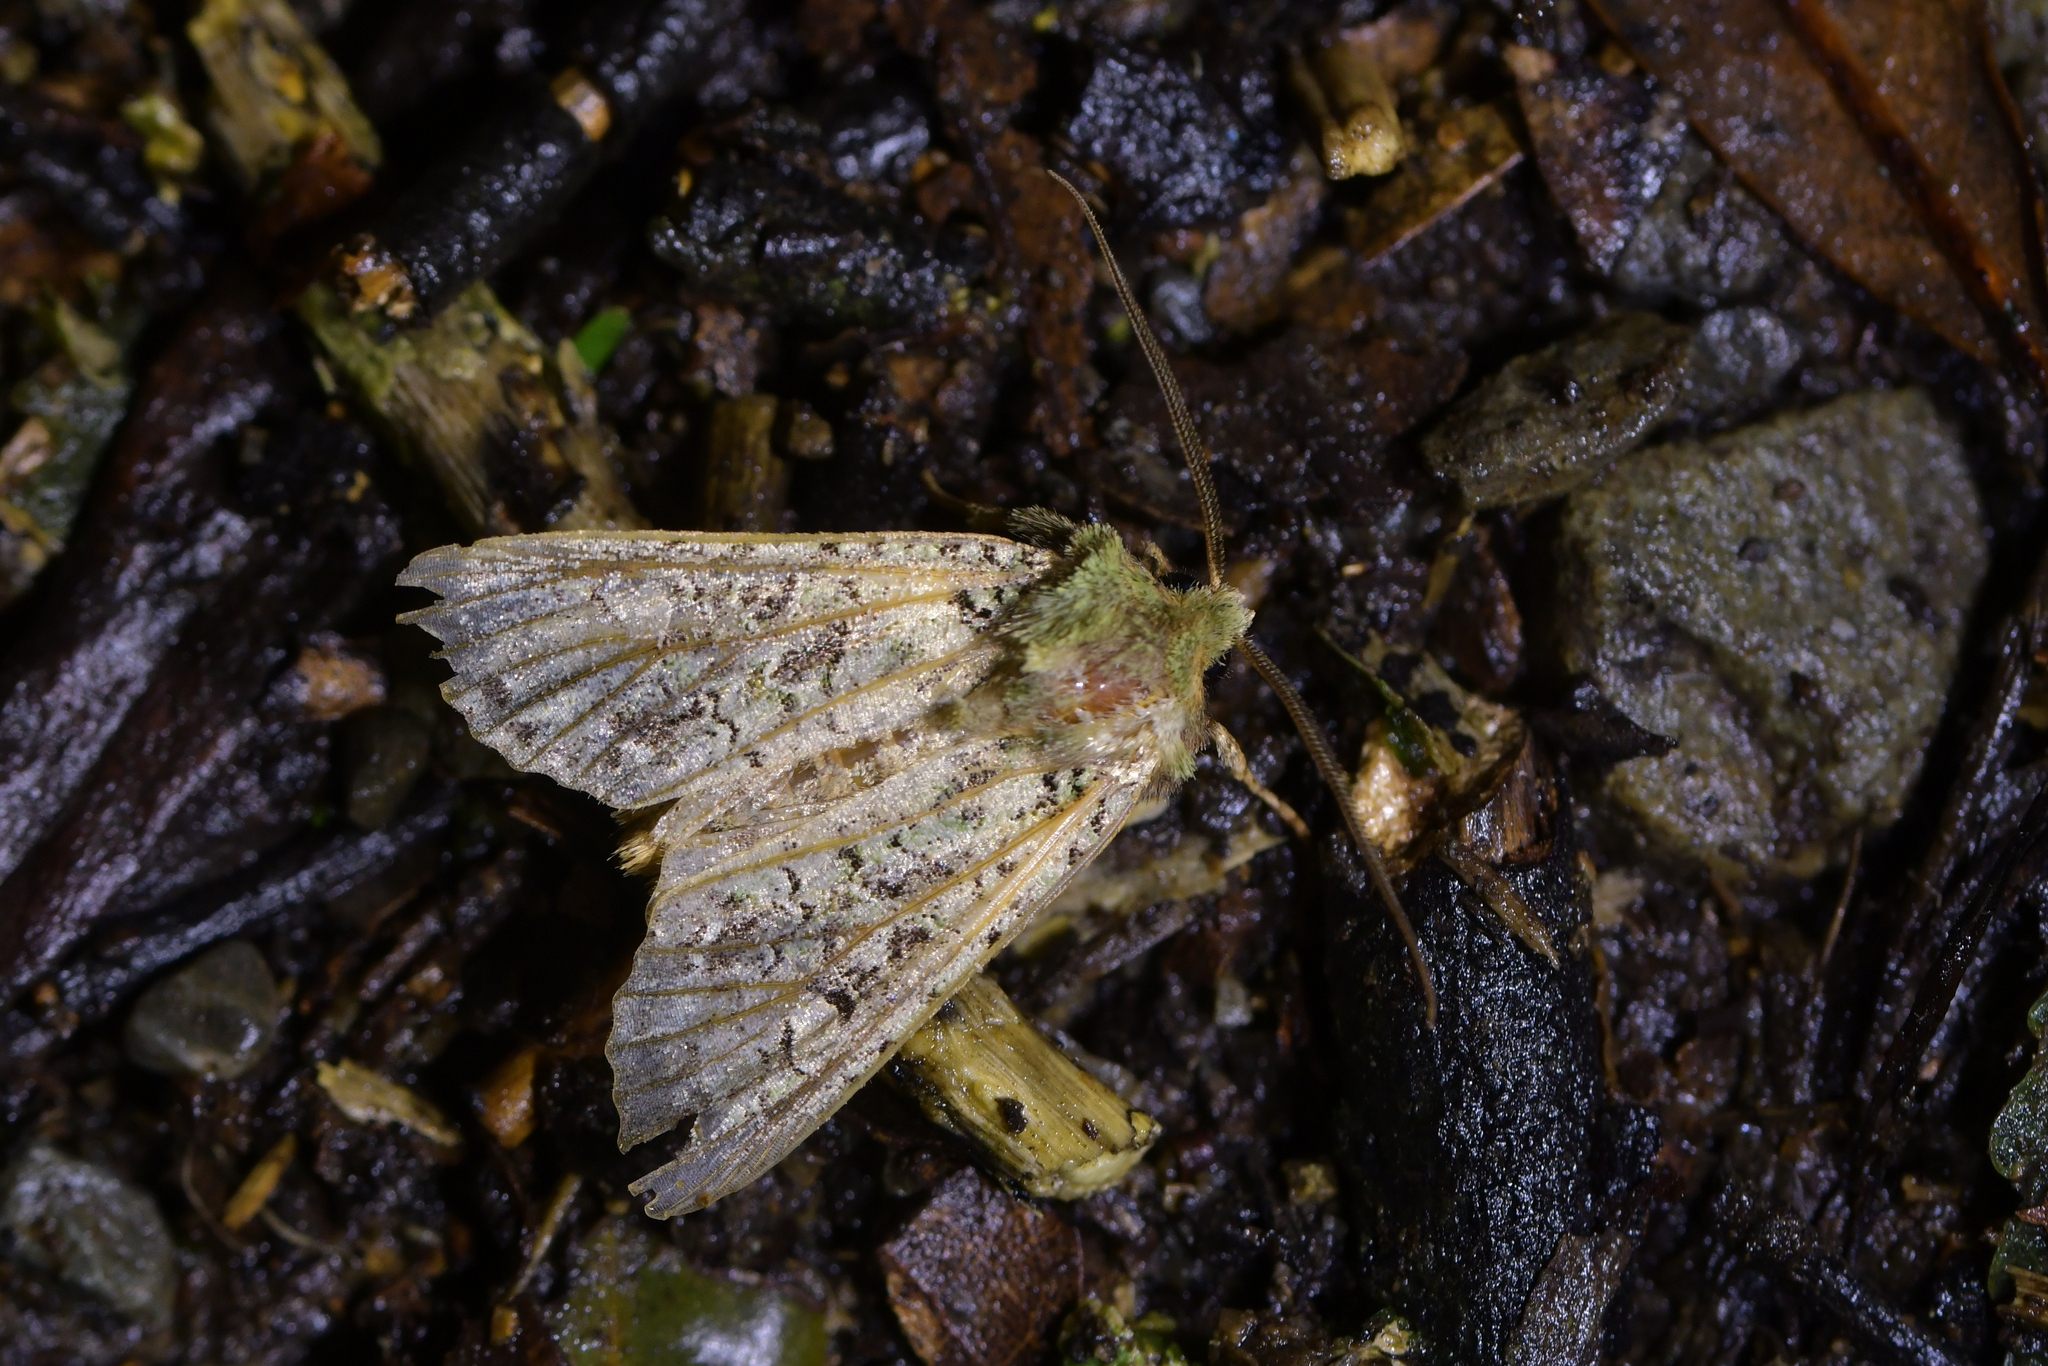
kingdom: Animalia
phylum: Arthropoda
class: Insecta
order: Lepidoptera
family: Noctuidae
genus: Ichneutica
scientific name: Ichneutica
